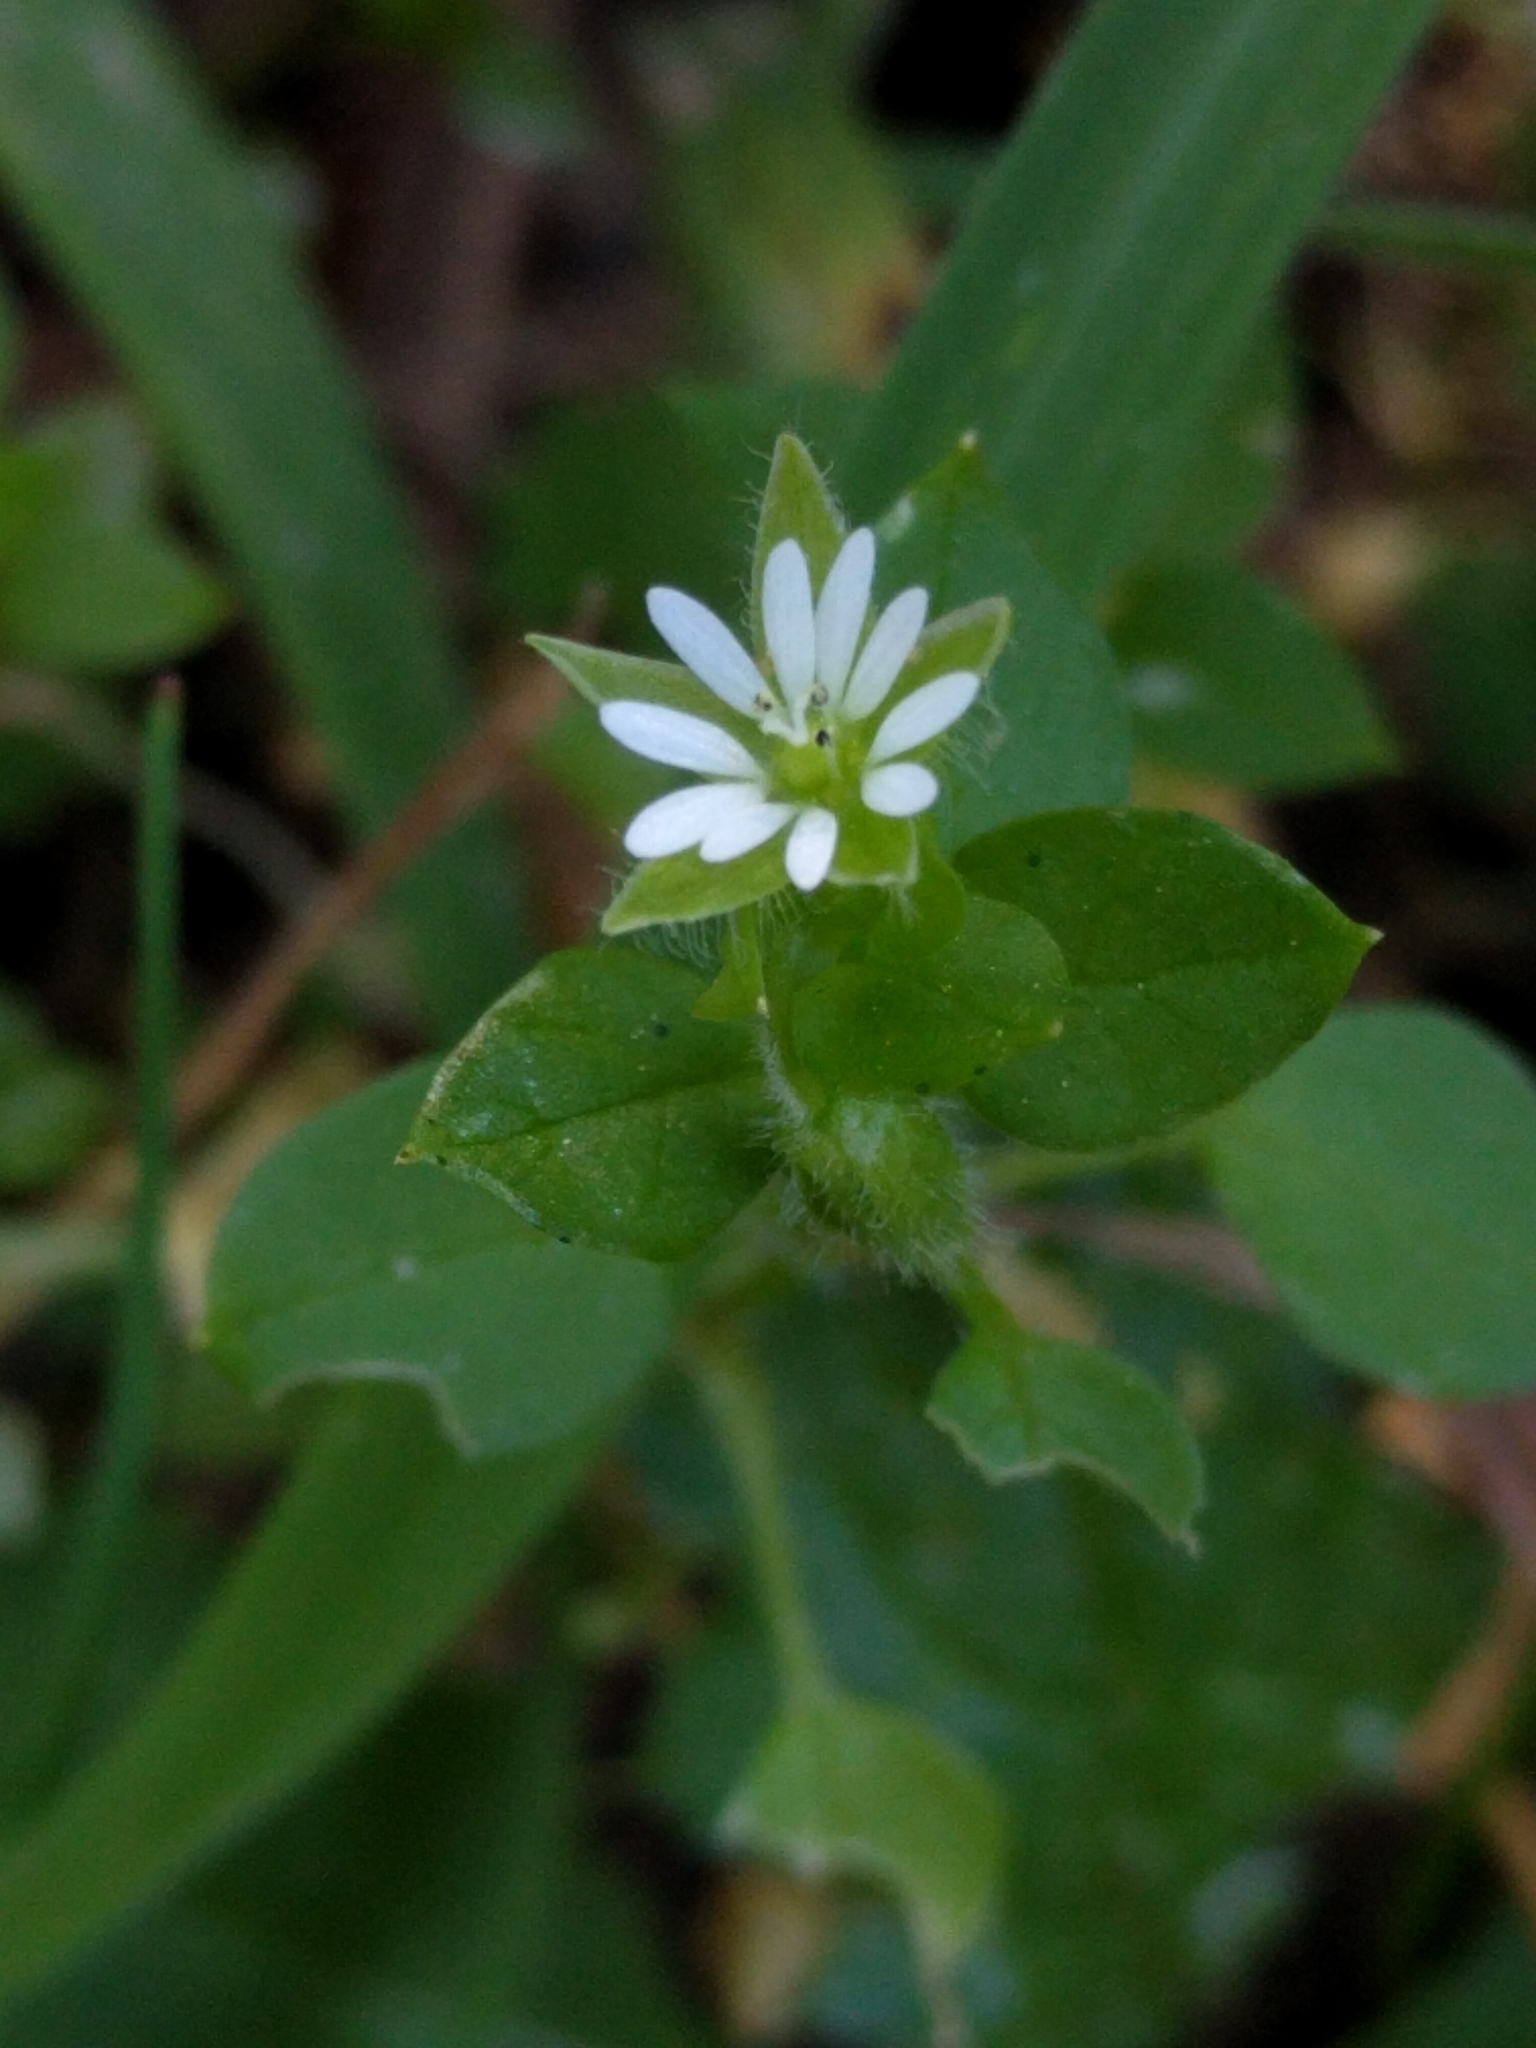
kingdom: Plantae
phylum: Tracheophyta
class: Magnoliopsida
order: Caryophyllales
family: Caryophyllaceae
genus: Stellaria
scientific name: Stellaria media
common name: Common chickweed
